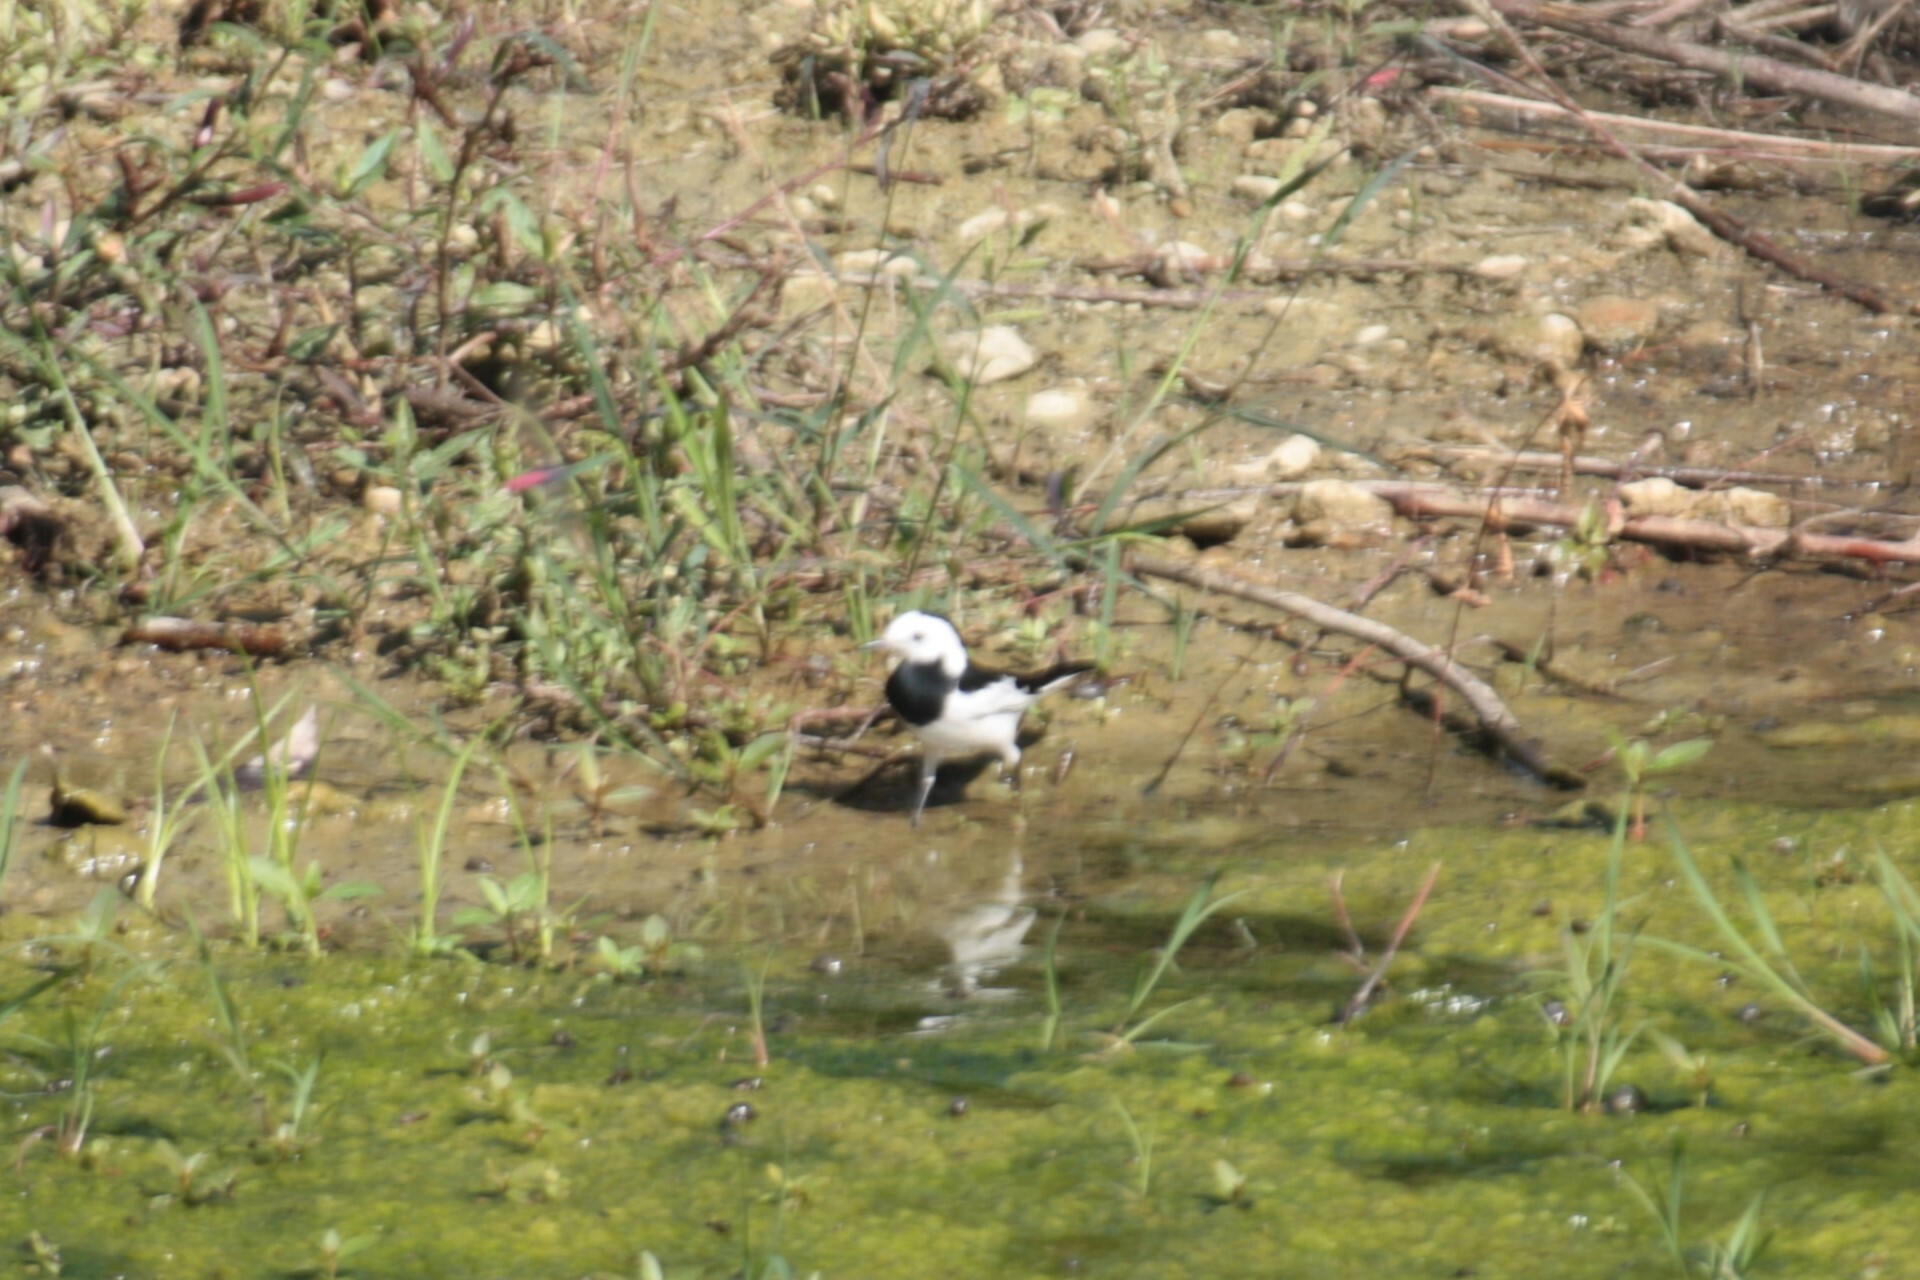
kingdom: Animalia
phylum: Chordata
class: Aves
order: Passeriformes
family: Motacillidae
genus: Motacilla
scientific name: Motacilla alba
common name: White wagtail
